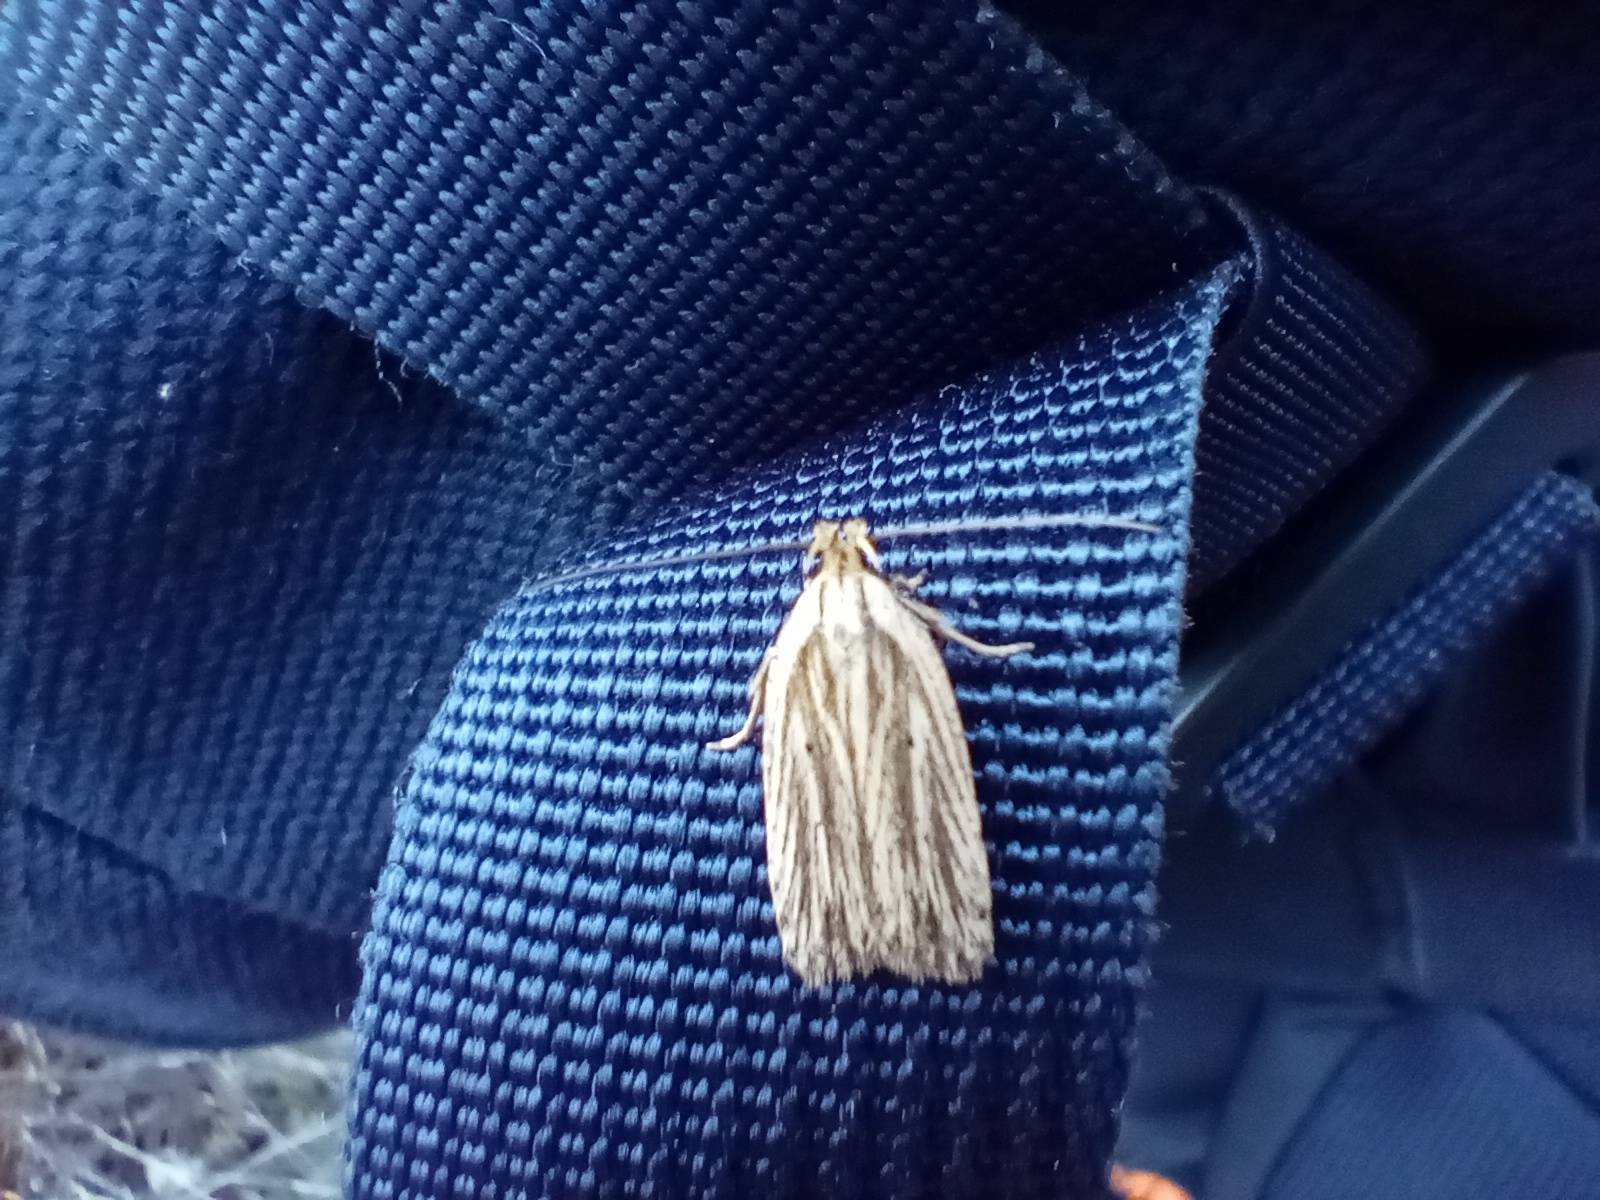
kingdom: Animalia
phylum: Arthropoda
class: Insecta
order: Lepidoptera
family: Depressariidae
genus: Agonopterix
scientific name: Agonopterix
